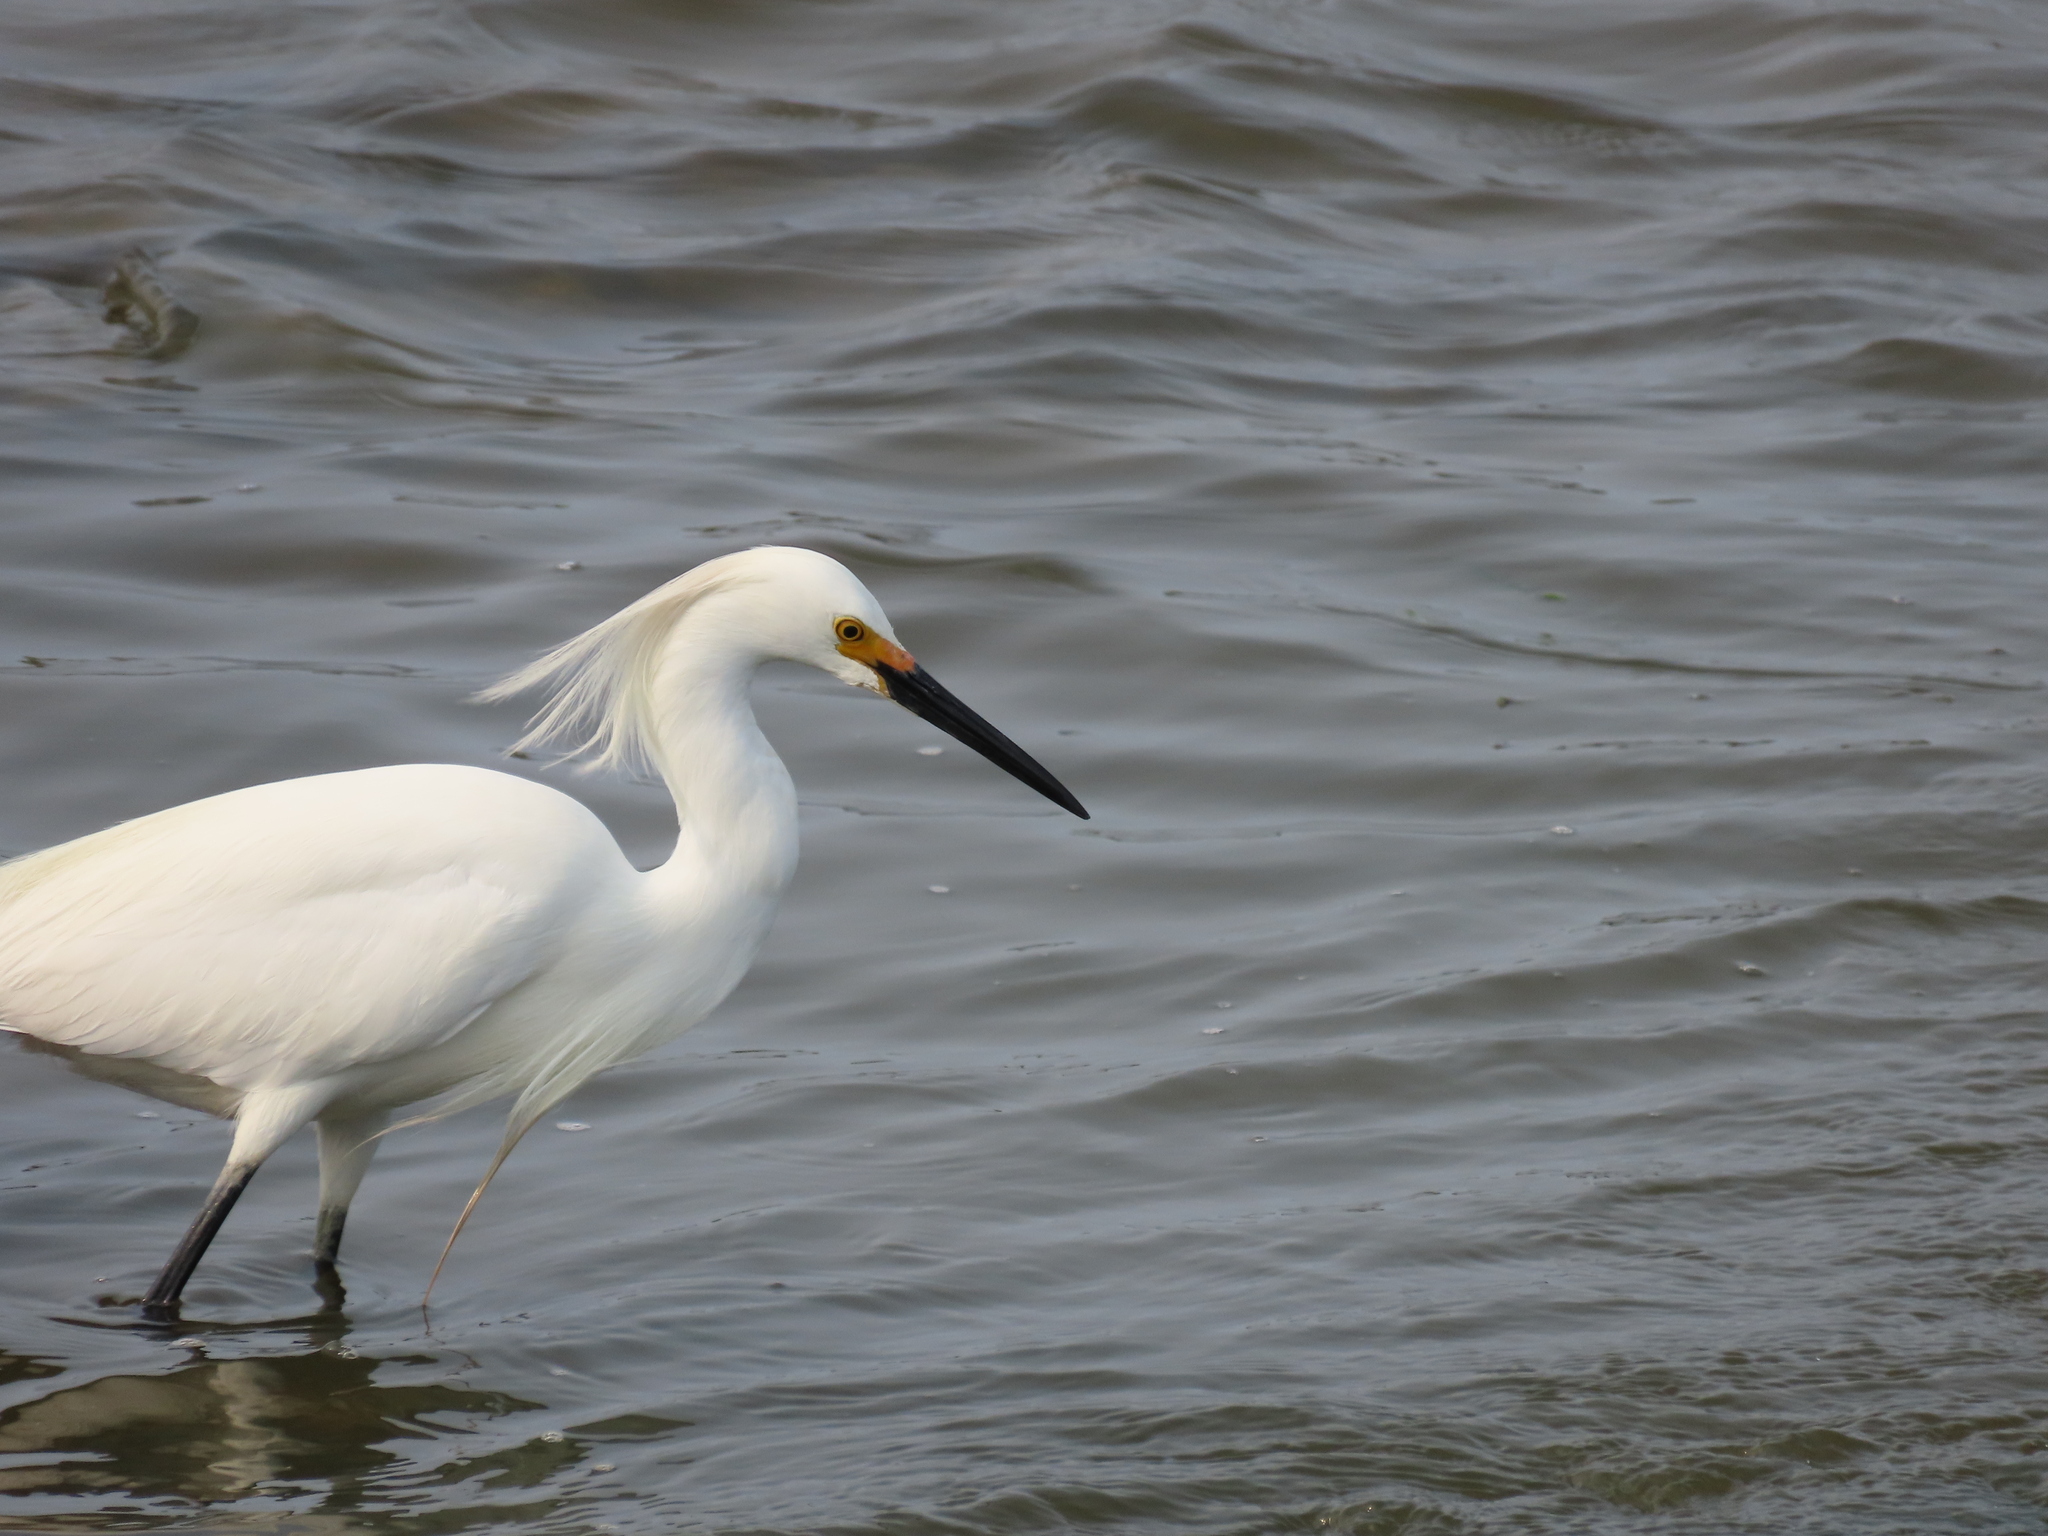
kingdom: Animalia
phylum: Chordata
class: Aves
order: Pelecaniformes
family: Ardeidae
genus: Egretta
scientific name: Egretta thula
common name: Snowy egret
